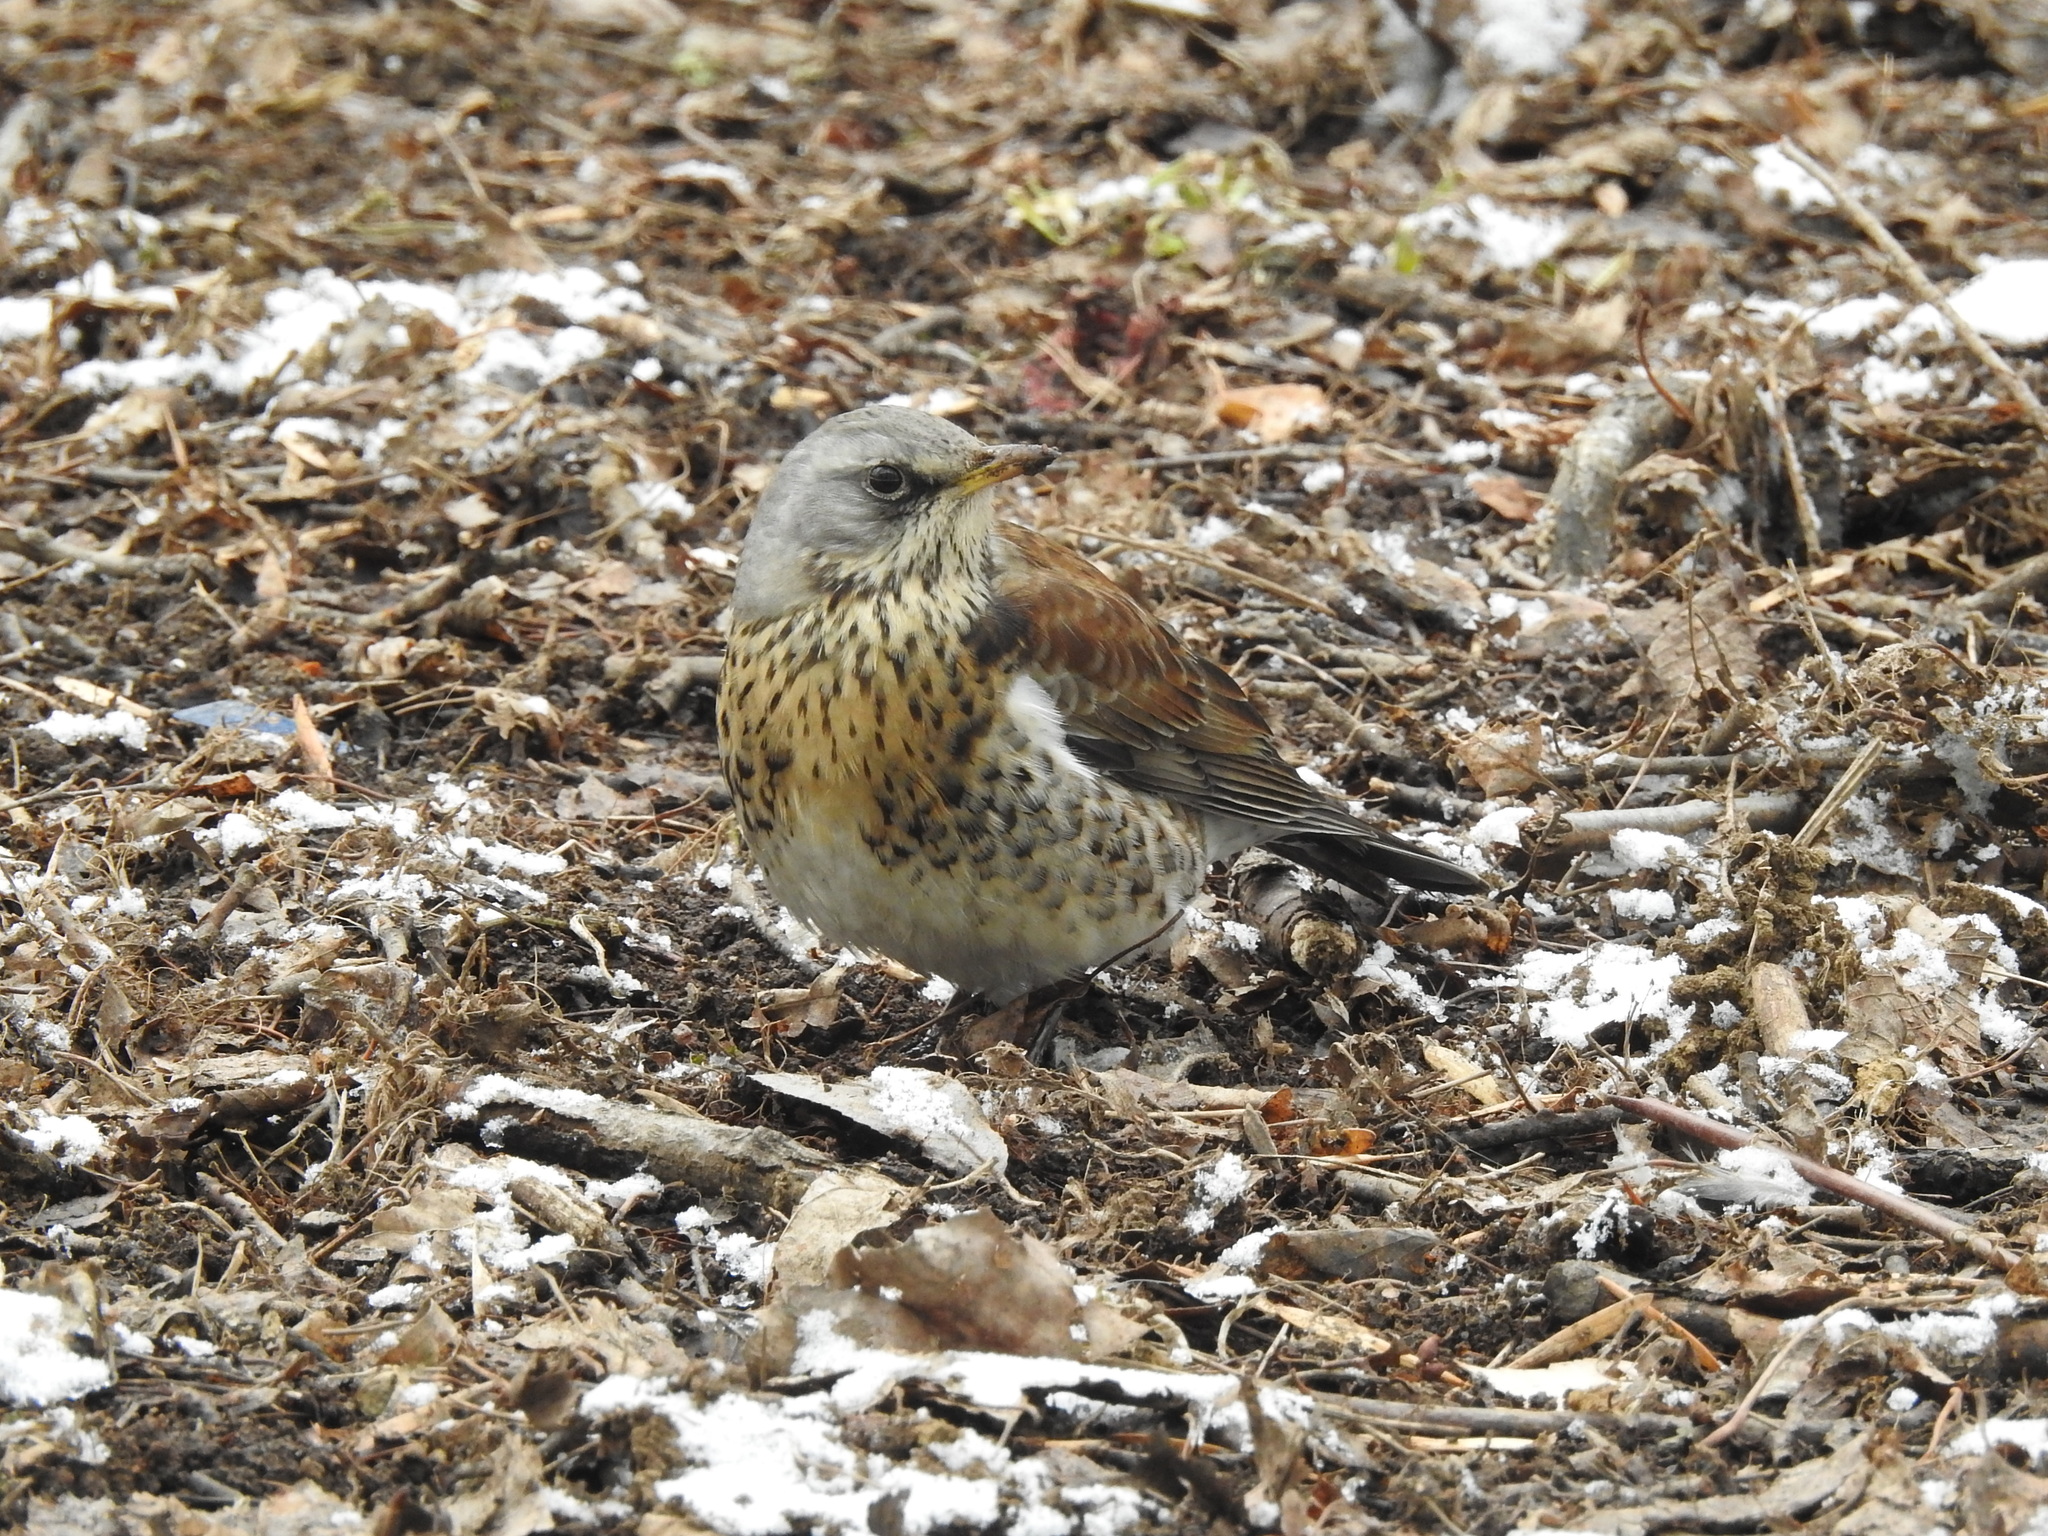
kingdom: Animalia
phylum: Chordata
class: Aves
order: Passeriformes
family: Turdidae
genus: Turdus
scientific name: Turdus pilaris
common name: Fieldfare
